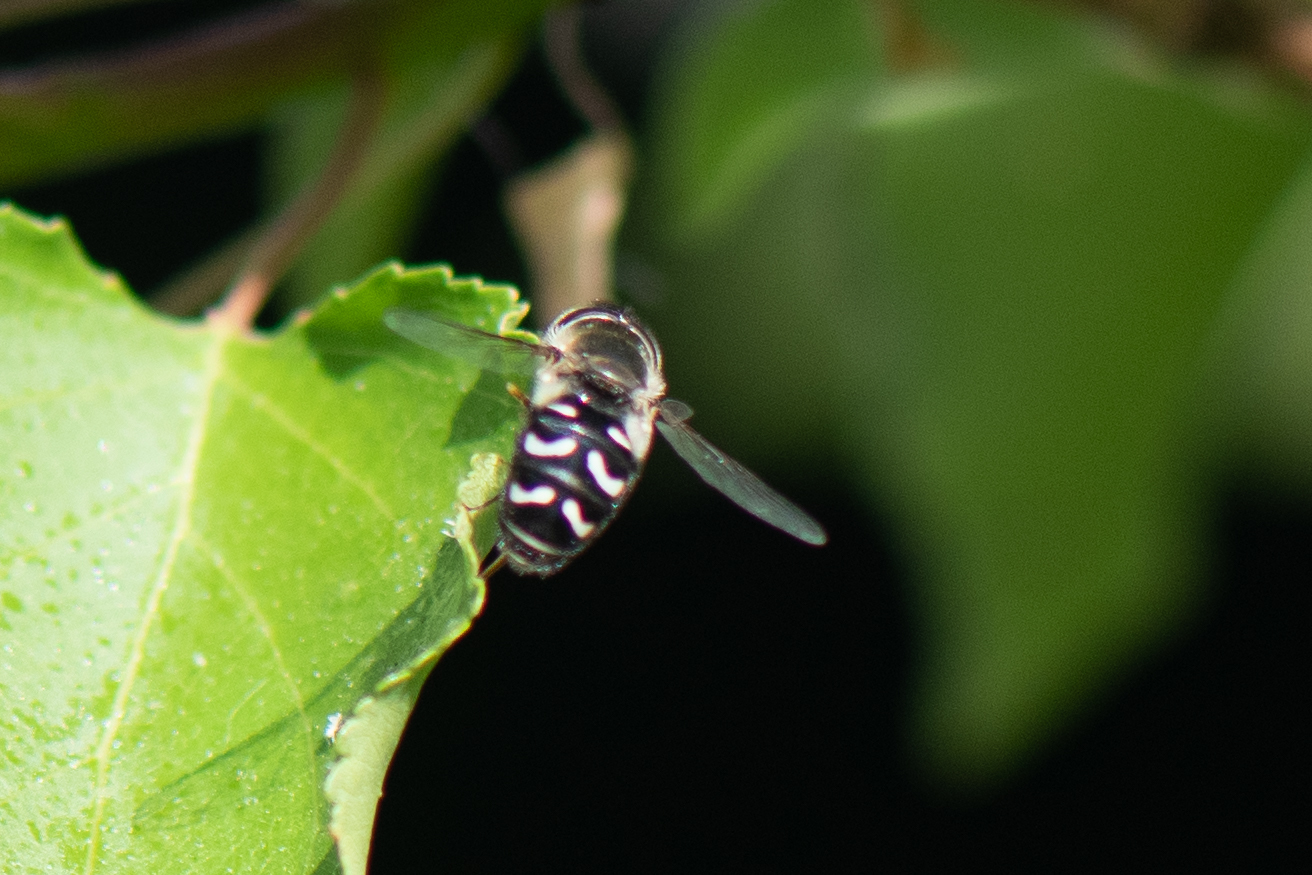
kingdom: Animalia
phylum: Arthropoda
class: Insecta
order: Diptera
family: Syrphidae
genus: Scaeva
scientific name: Scaeva affinis
